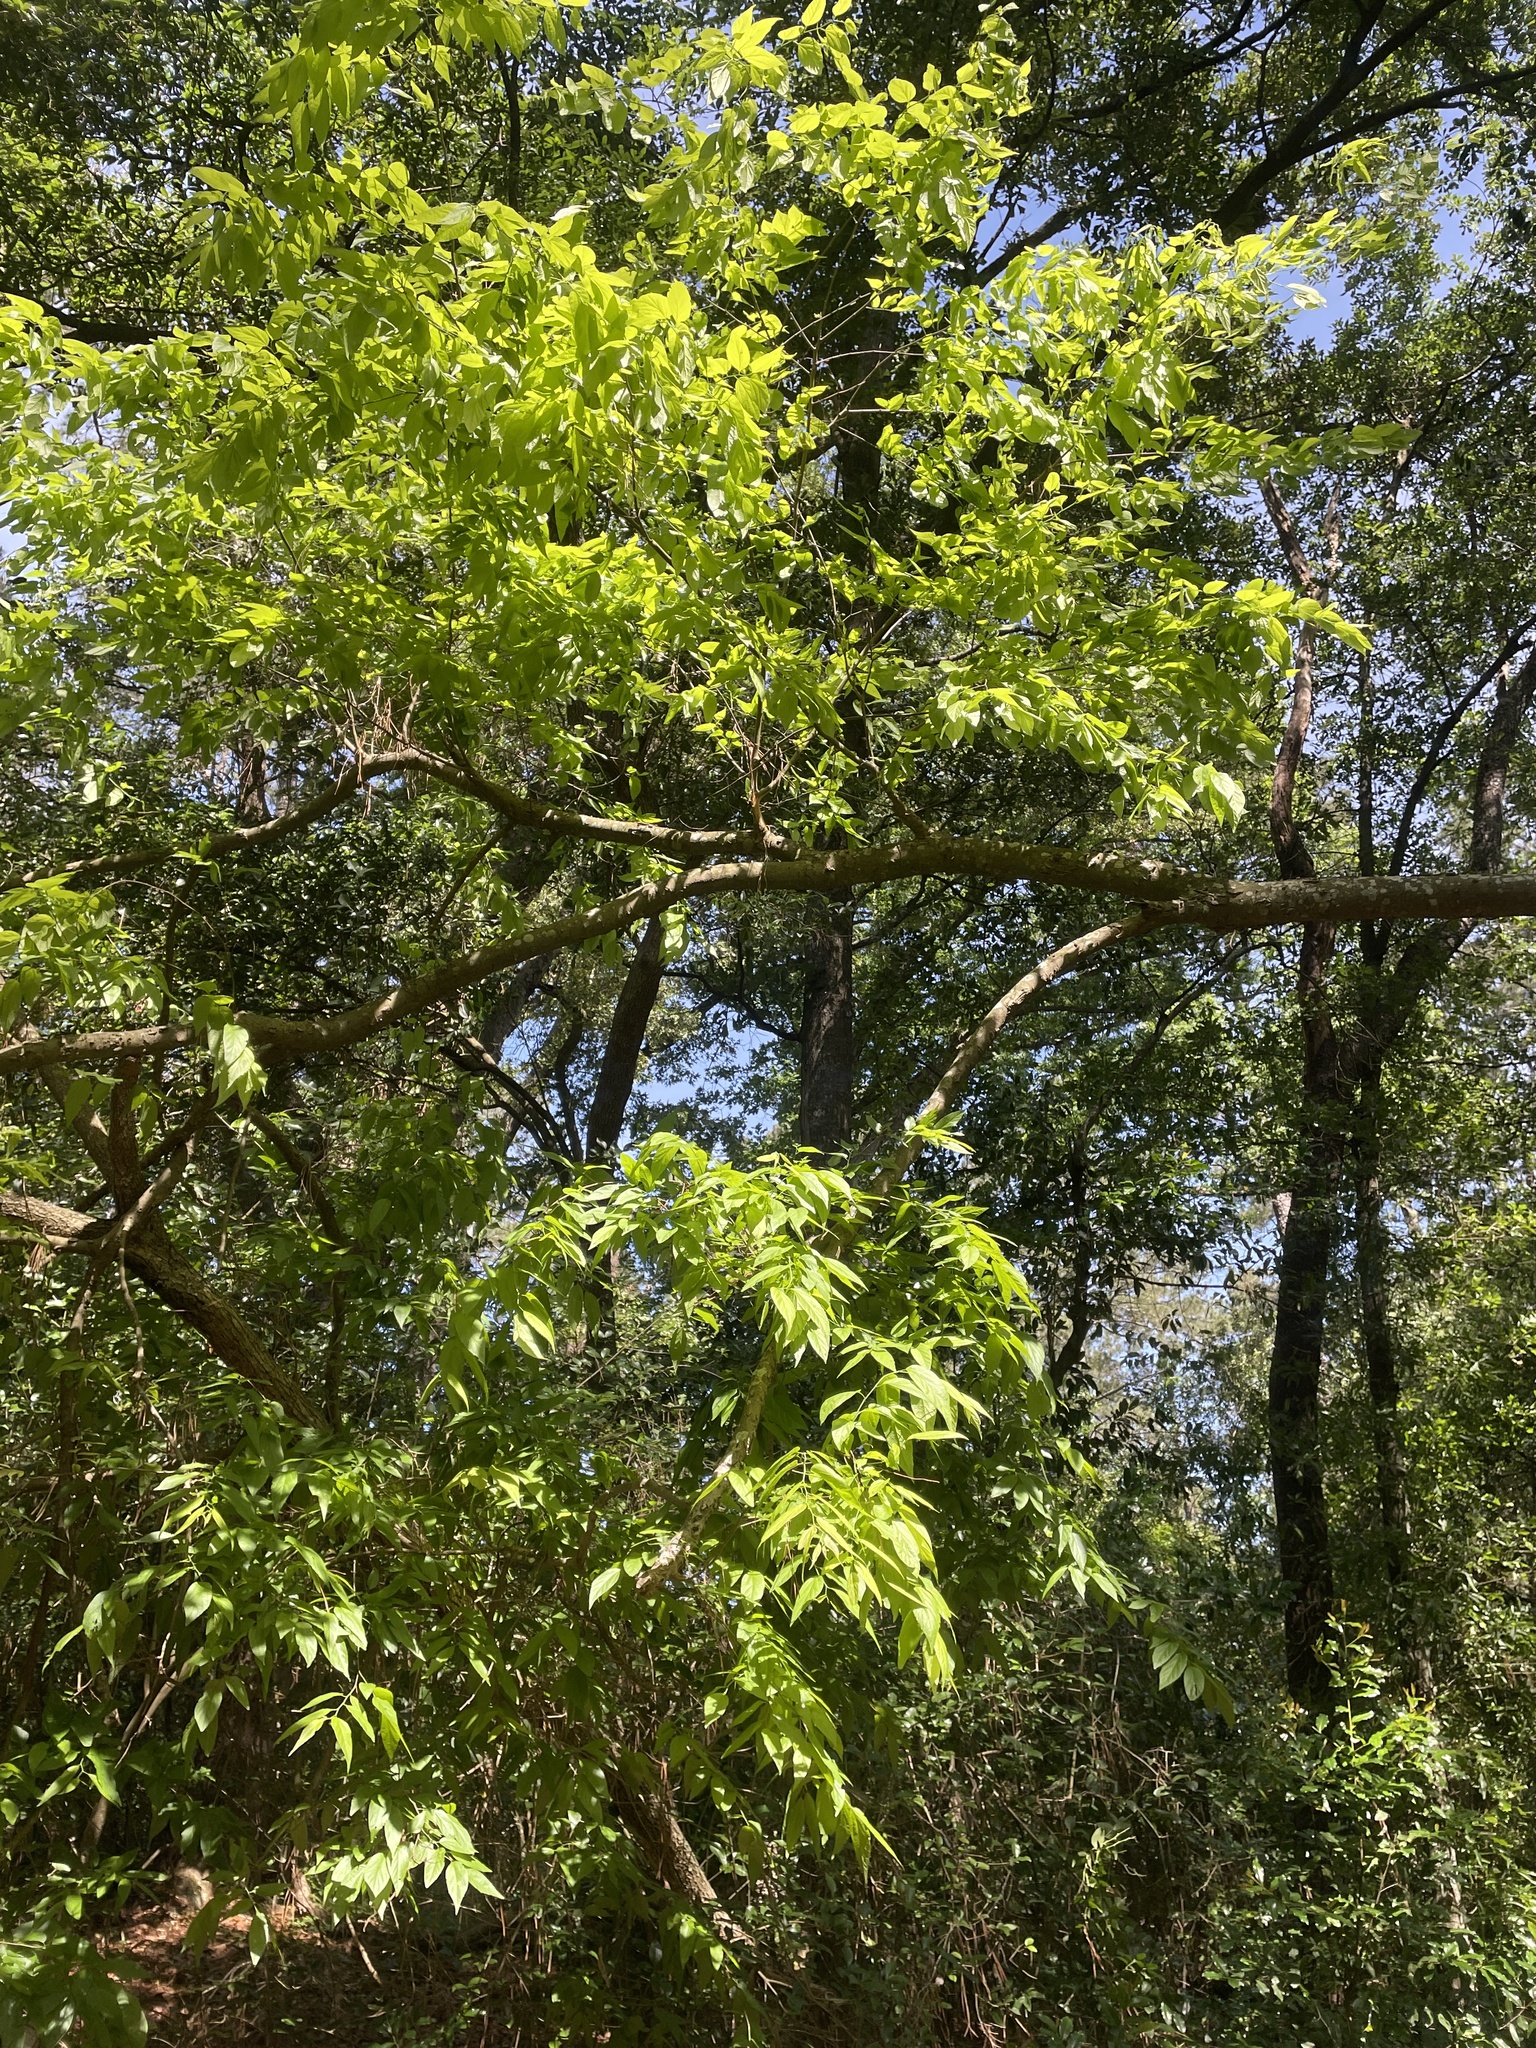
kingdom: Plantae
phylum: Tracheophyta
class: Magnoliopsida
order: Rosales
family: Cannabaceae
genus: Celtis
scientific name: Celtis laevigata
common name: Sugarberry
